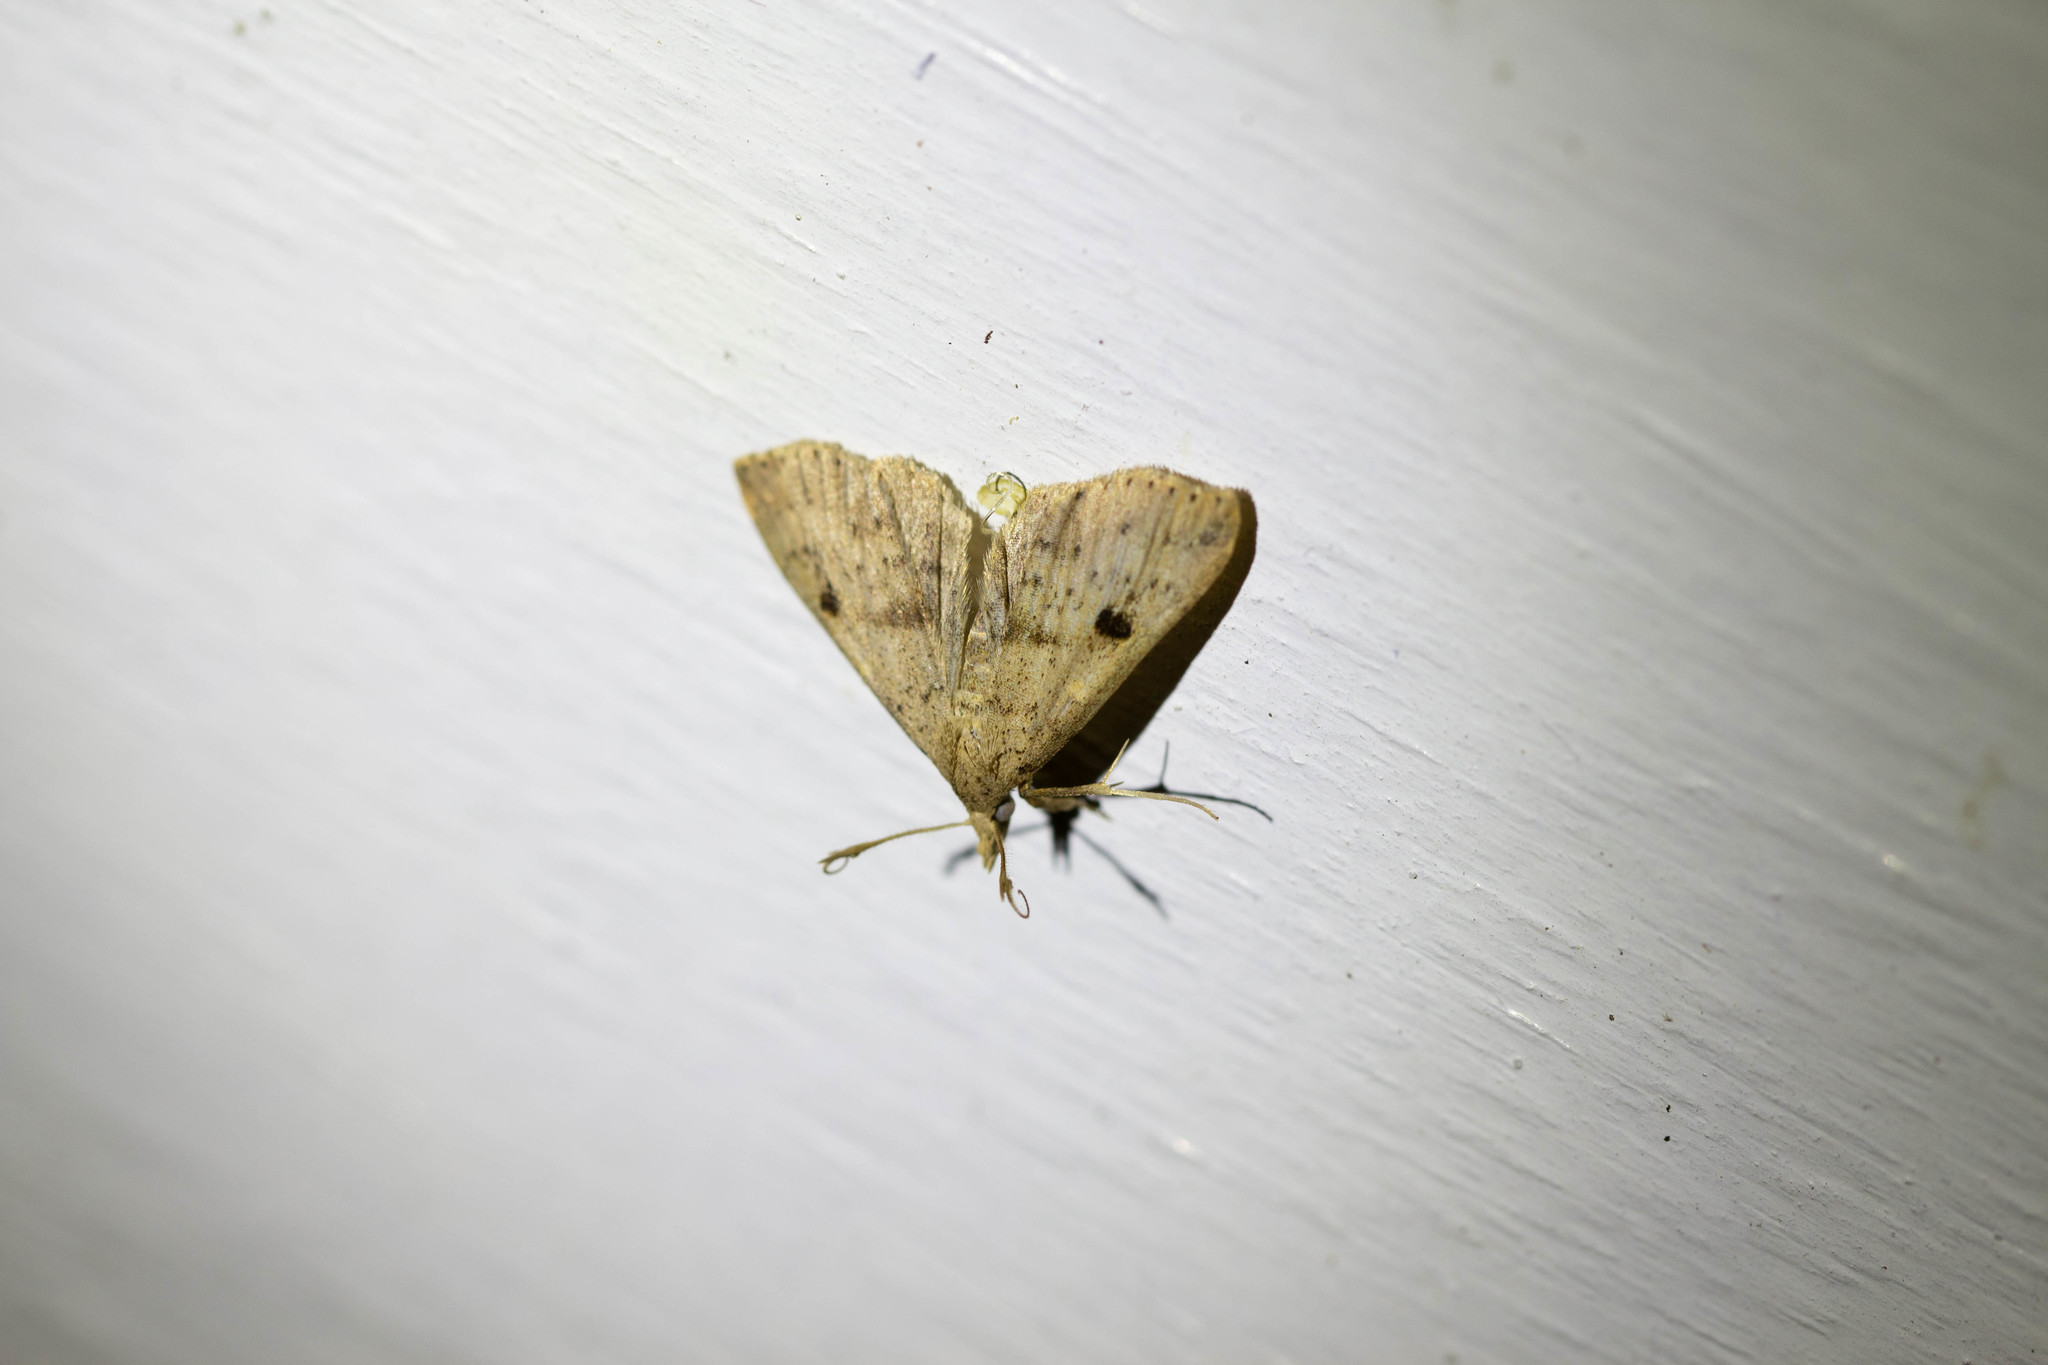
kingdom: Animalia
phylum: Arthropoda
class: Insecta
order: Lepidoptera
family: Erebidae
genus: Renia
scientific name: Renia salusalis
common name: Dotted renia moth
